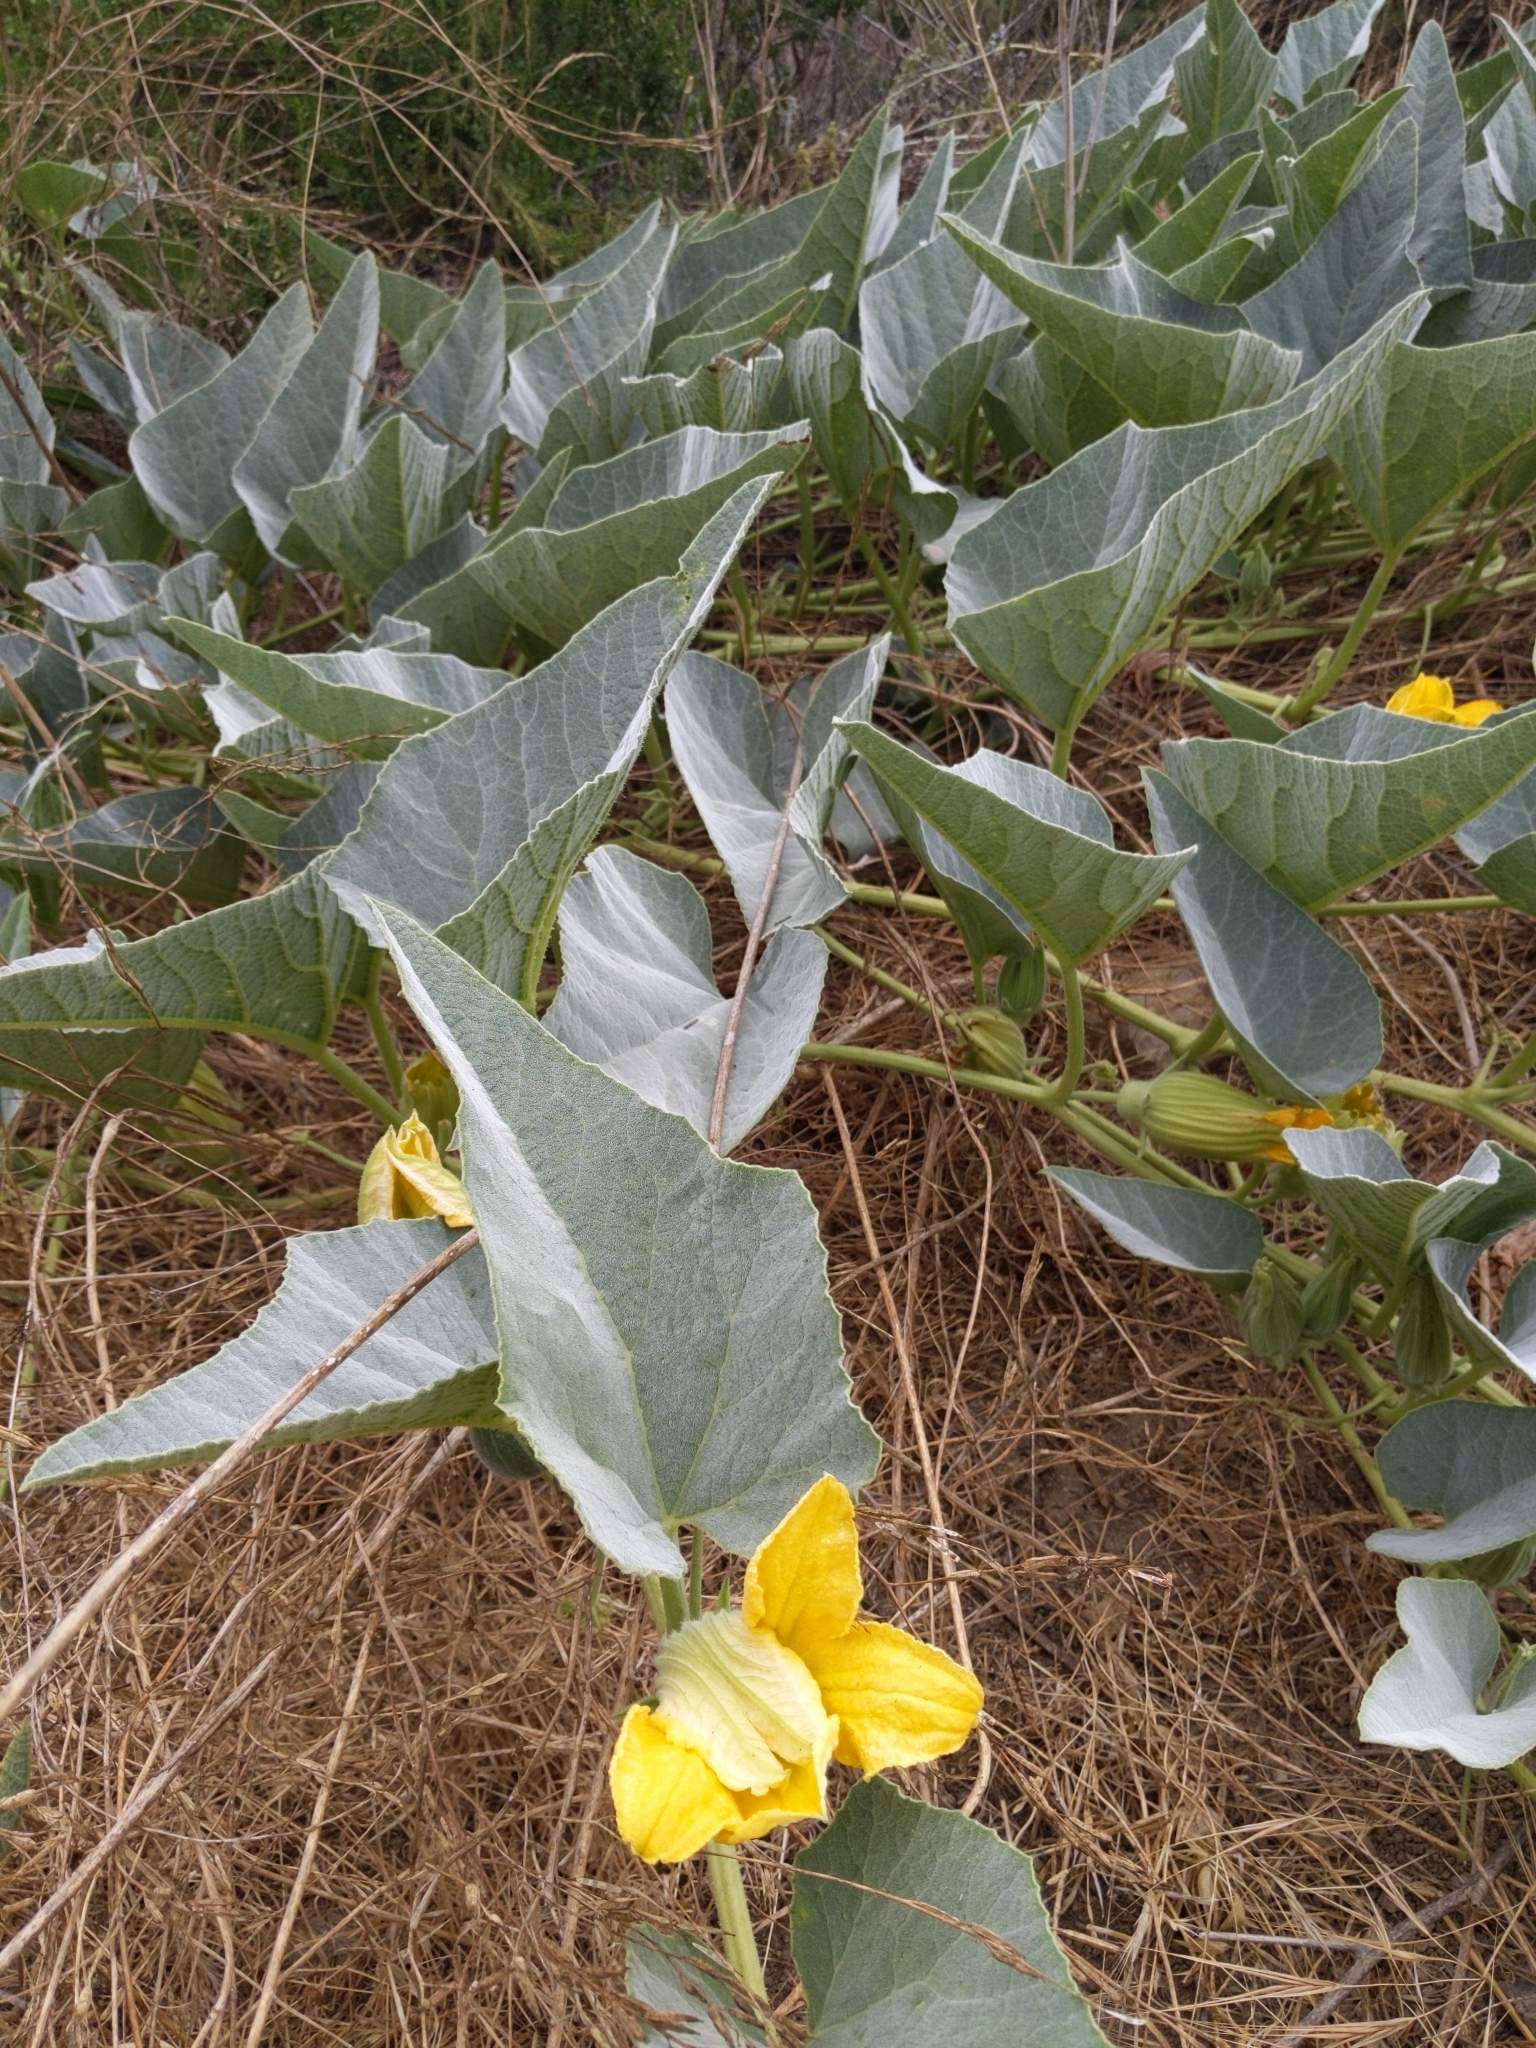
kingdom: Plantae
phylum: Tracheophyta
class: Magnoliopsida
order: Cucurbitales
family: Cucurbitaceae
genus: Cucurbita
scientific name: Cucurbita foetidissima
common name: Buffalo gourd
